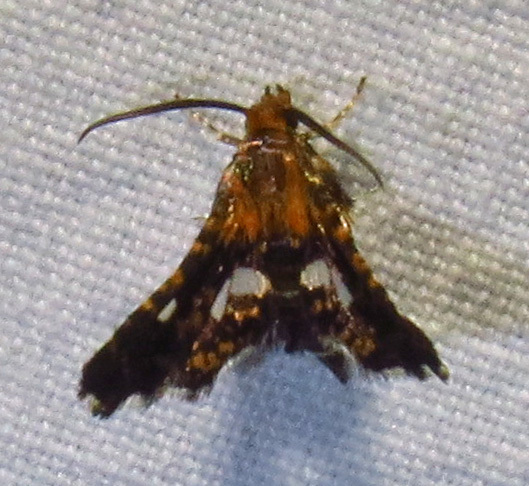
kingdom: Animalia
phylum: Arthropoda
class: Insecta
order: Lepidoptera
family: Thyrididae
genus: Thyris
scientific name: Thyris maculata
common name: Spotted thyris moth
